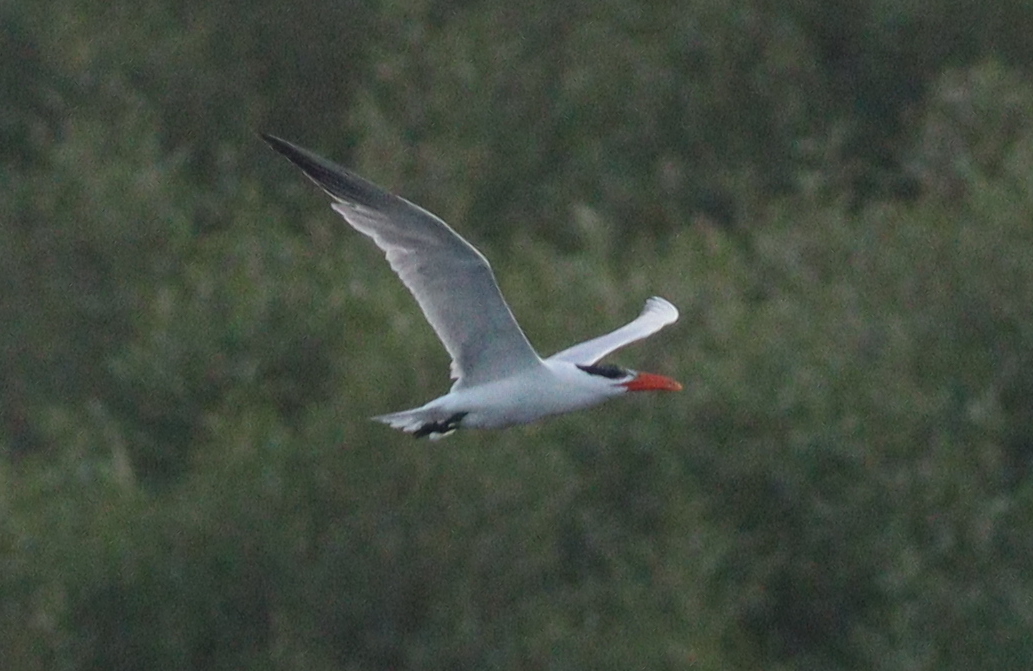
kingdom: Animalia
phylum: Chordata
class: Aves
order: Charadriiformes
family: Laridae
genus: Hydroprogne
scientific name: Hydroprogne caspia
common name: Caspian tern
